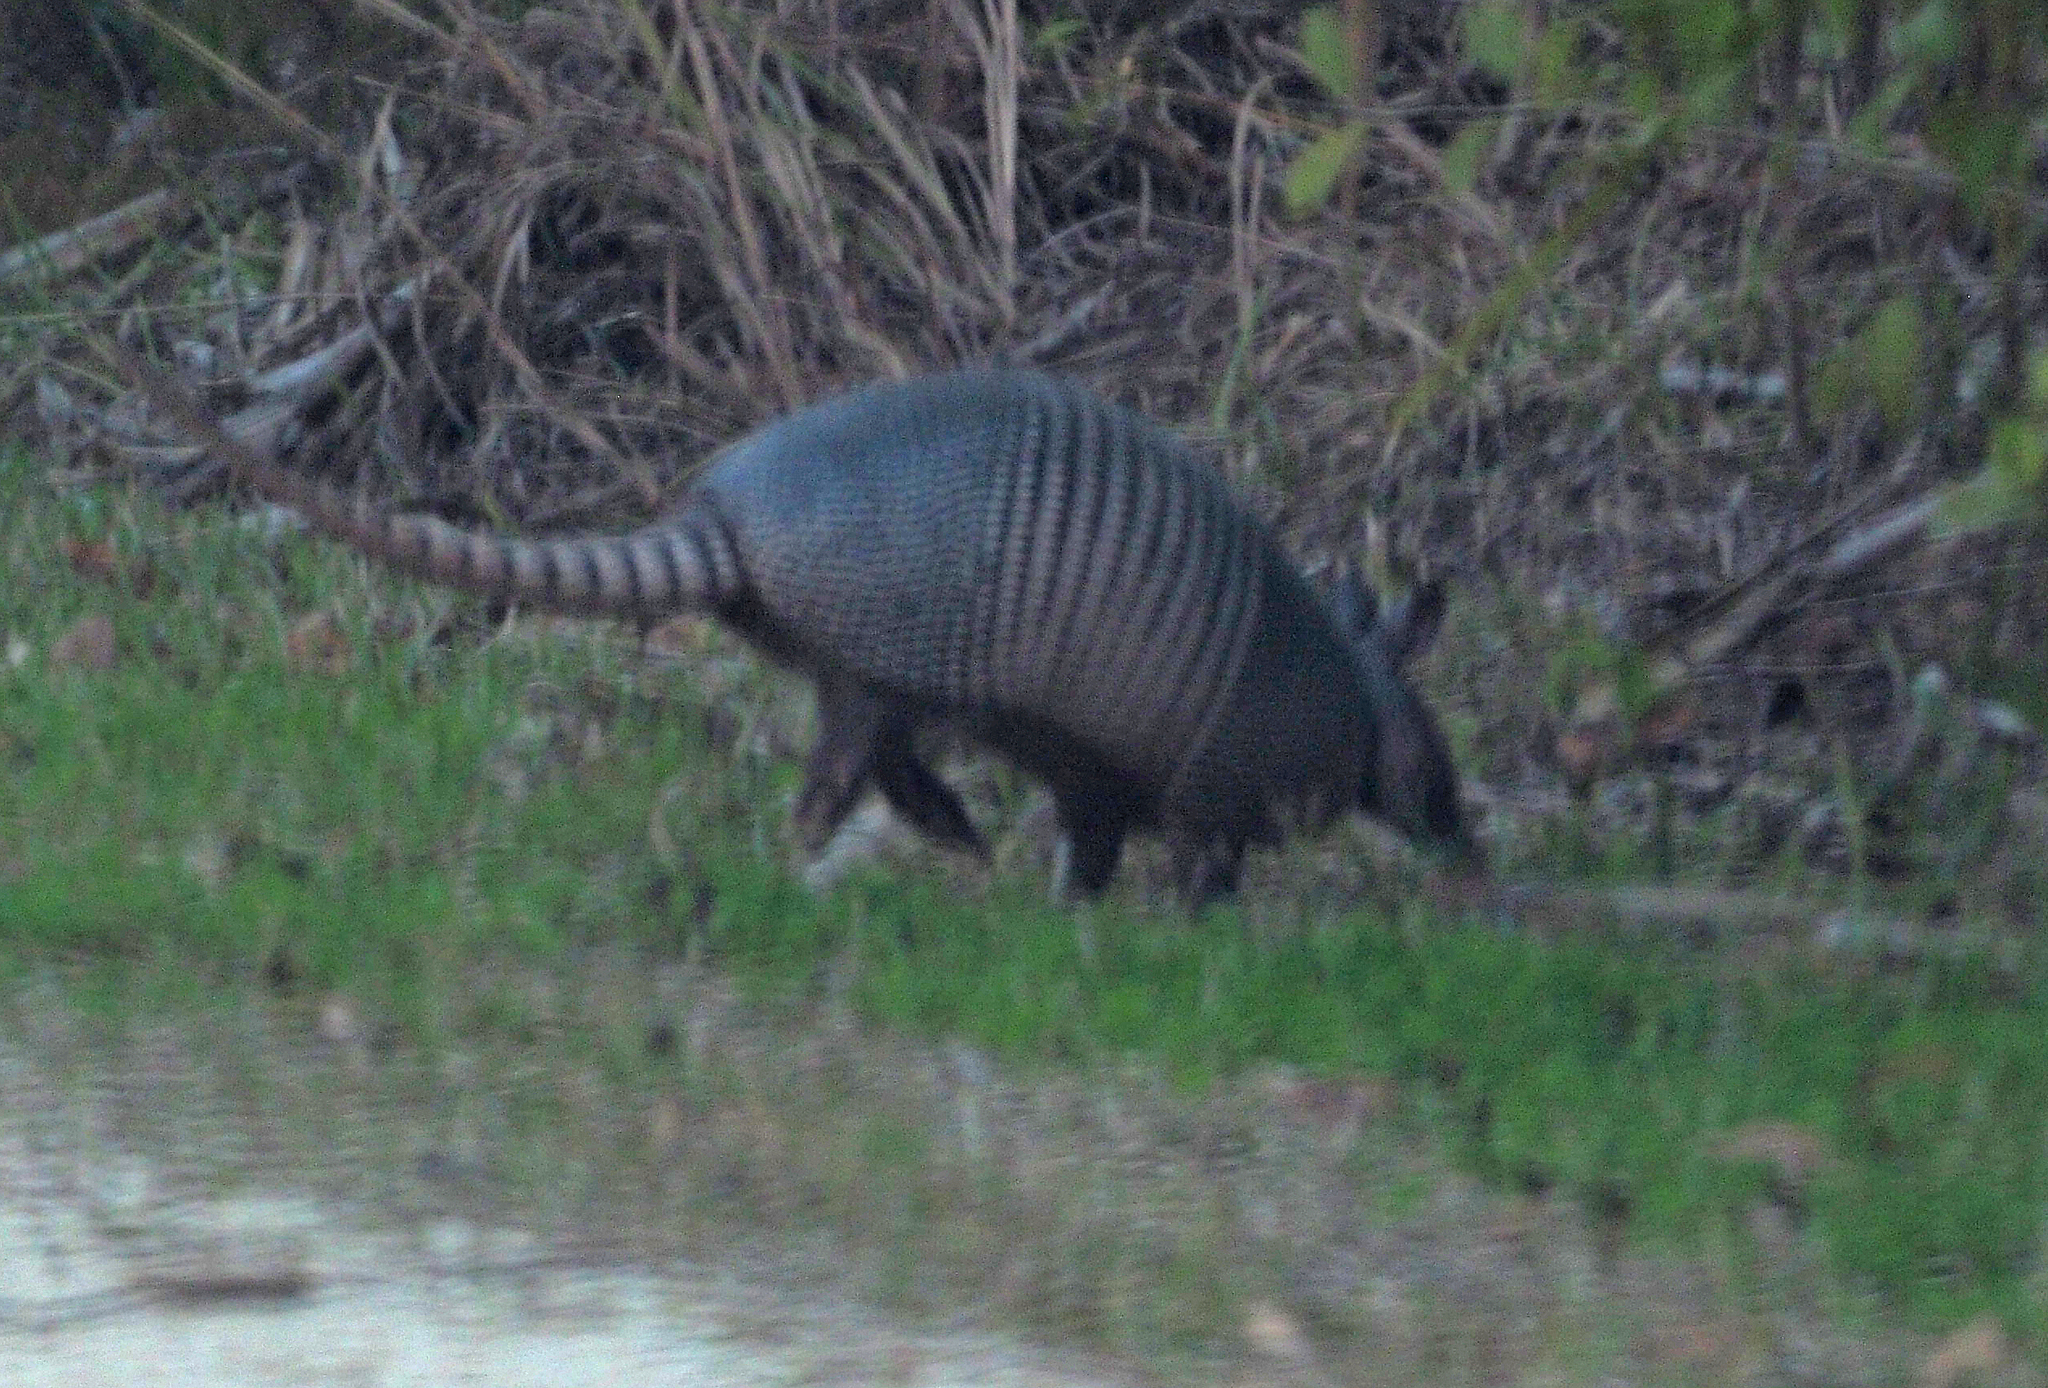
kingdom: Animalia
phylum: Chordata
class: Mammalia
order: Cingulata
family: Dasypodidae
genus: Dasypus
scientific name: Dasypus novemcinctus
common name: Nine-banded armadillo
